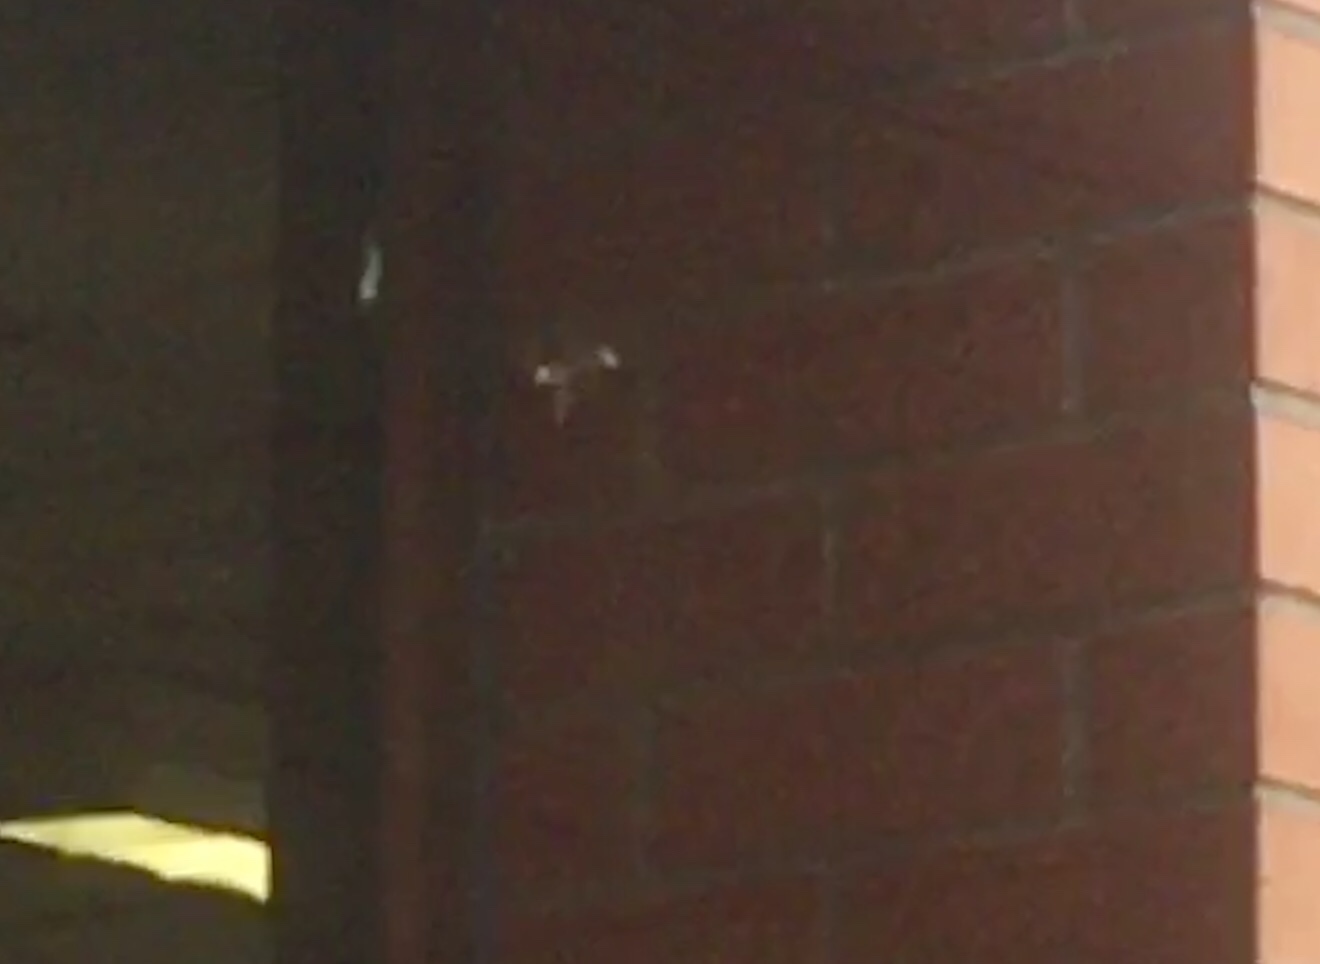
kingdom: Animalia
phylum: Arthropoda
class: Insecta
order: Lepidoptera
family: Nymphalidae
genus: Vanessa
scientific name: Vanessa itea
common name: Yellow admiral
